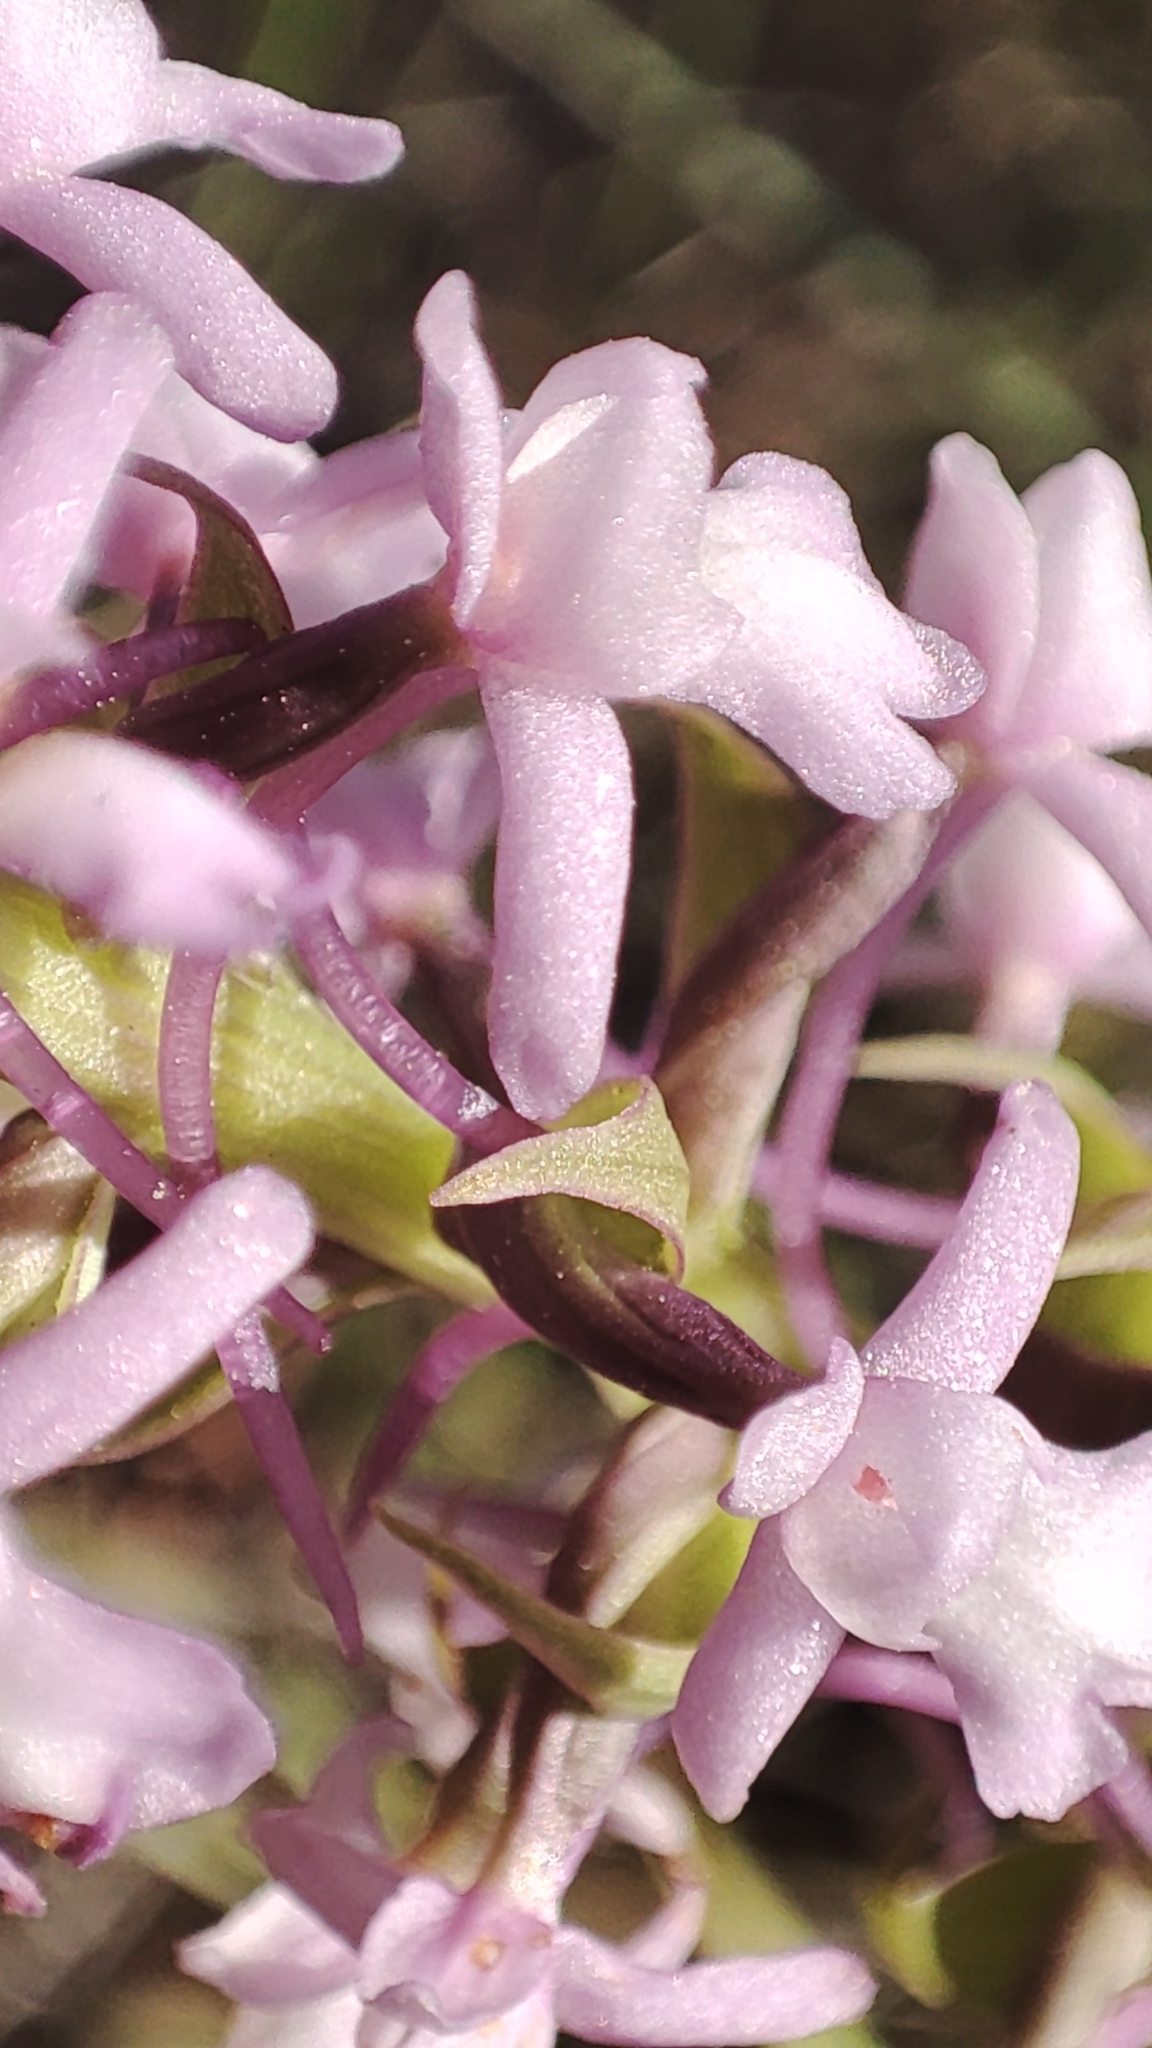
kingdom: Plantae
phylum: Tracheophyta
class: Liliopsida
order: Asparagales
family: Orchidaceae
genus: Gymnadenia
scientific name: Gymnadenia conopsea
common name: Fragrant orchid
